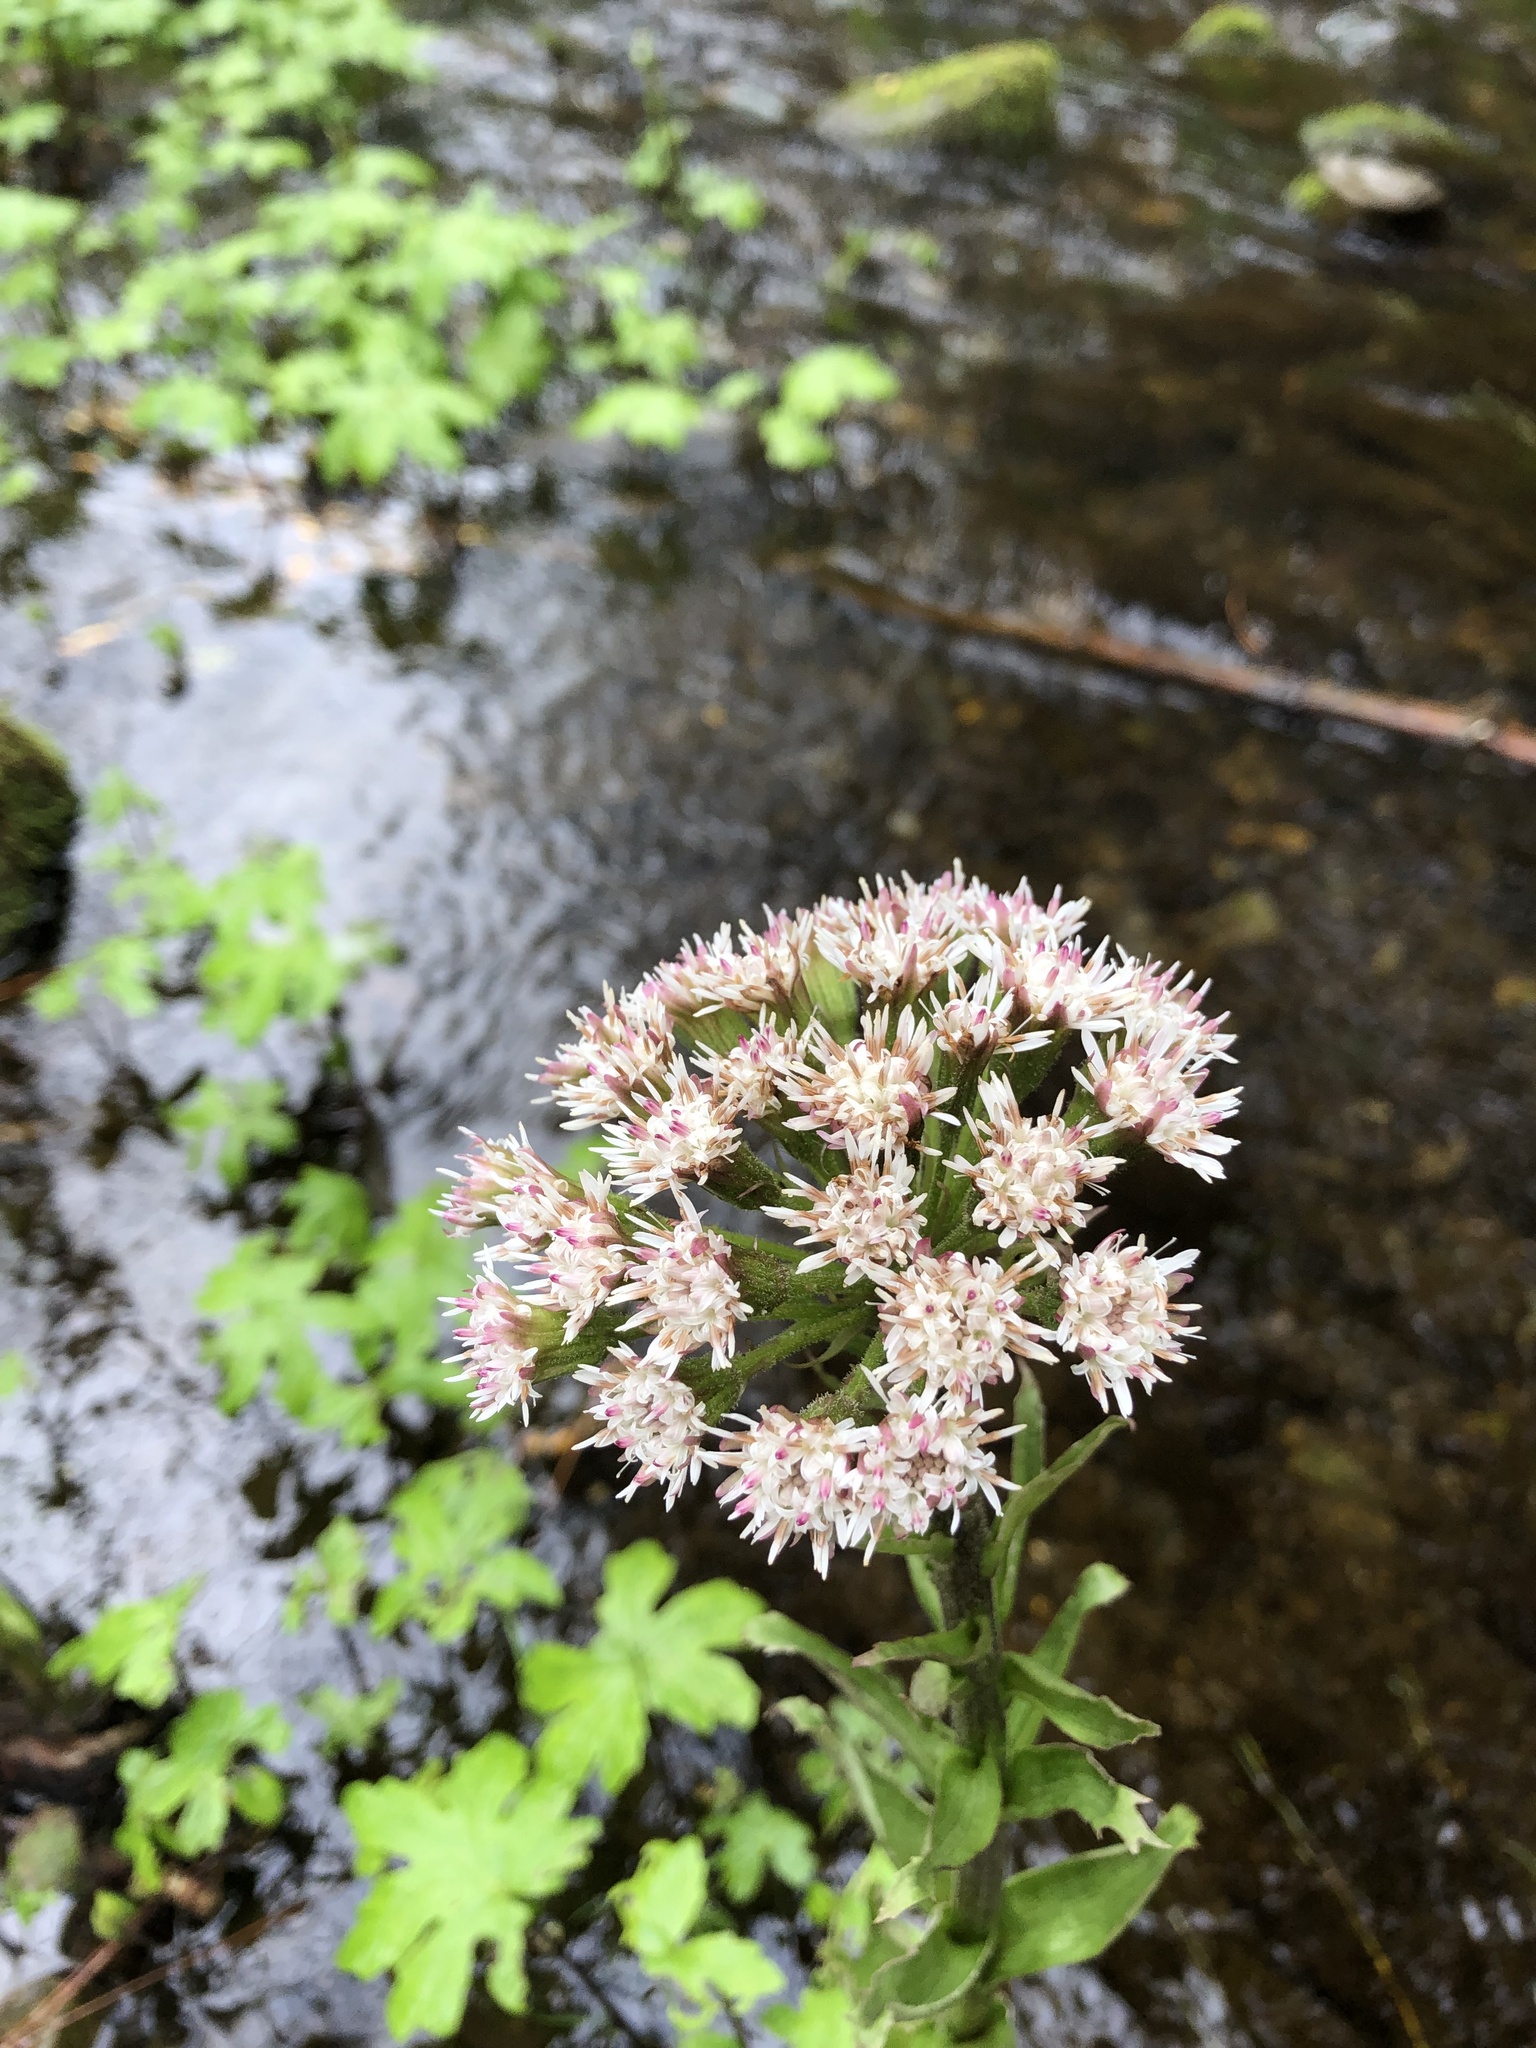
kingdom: Plantae
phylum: Tracheophyta
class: Magnoliopsida
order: Asterales
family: Asteraceae
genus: Petasites
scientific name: Petasites frigidus
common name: Arctic butterbur
